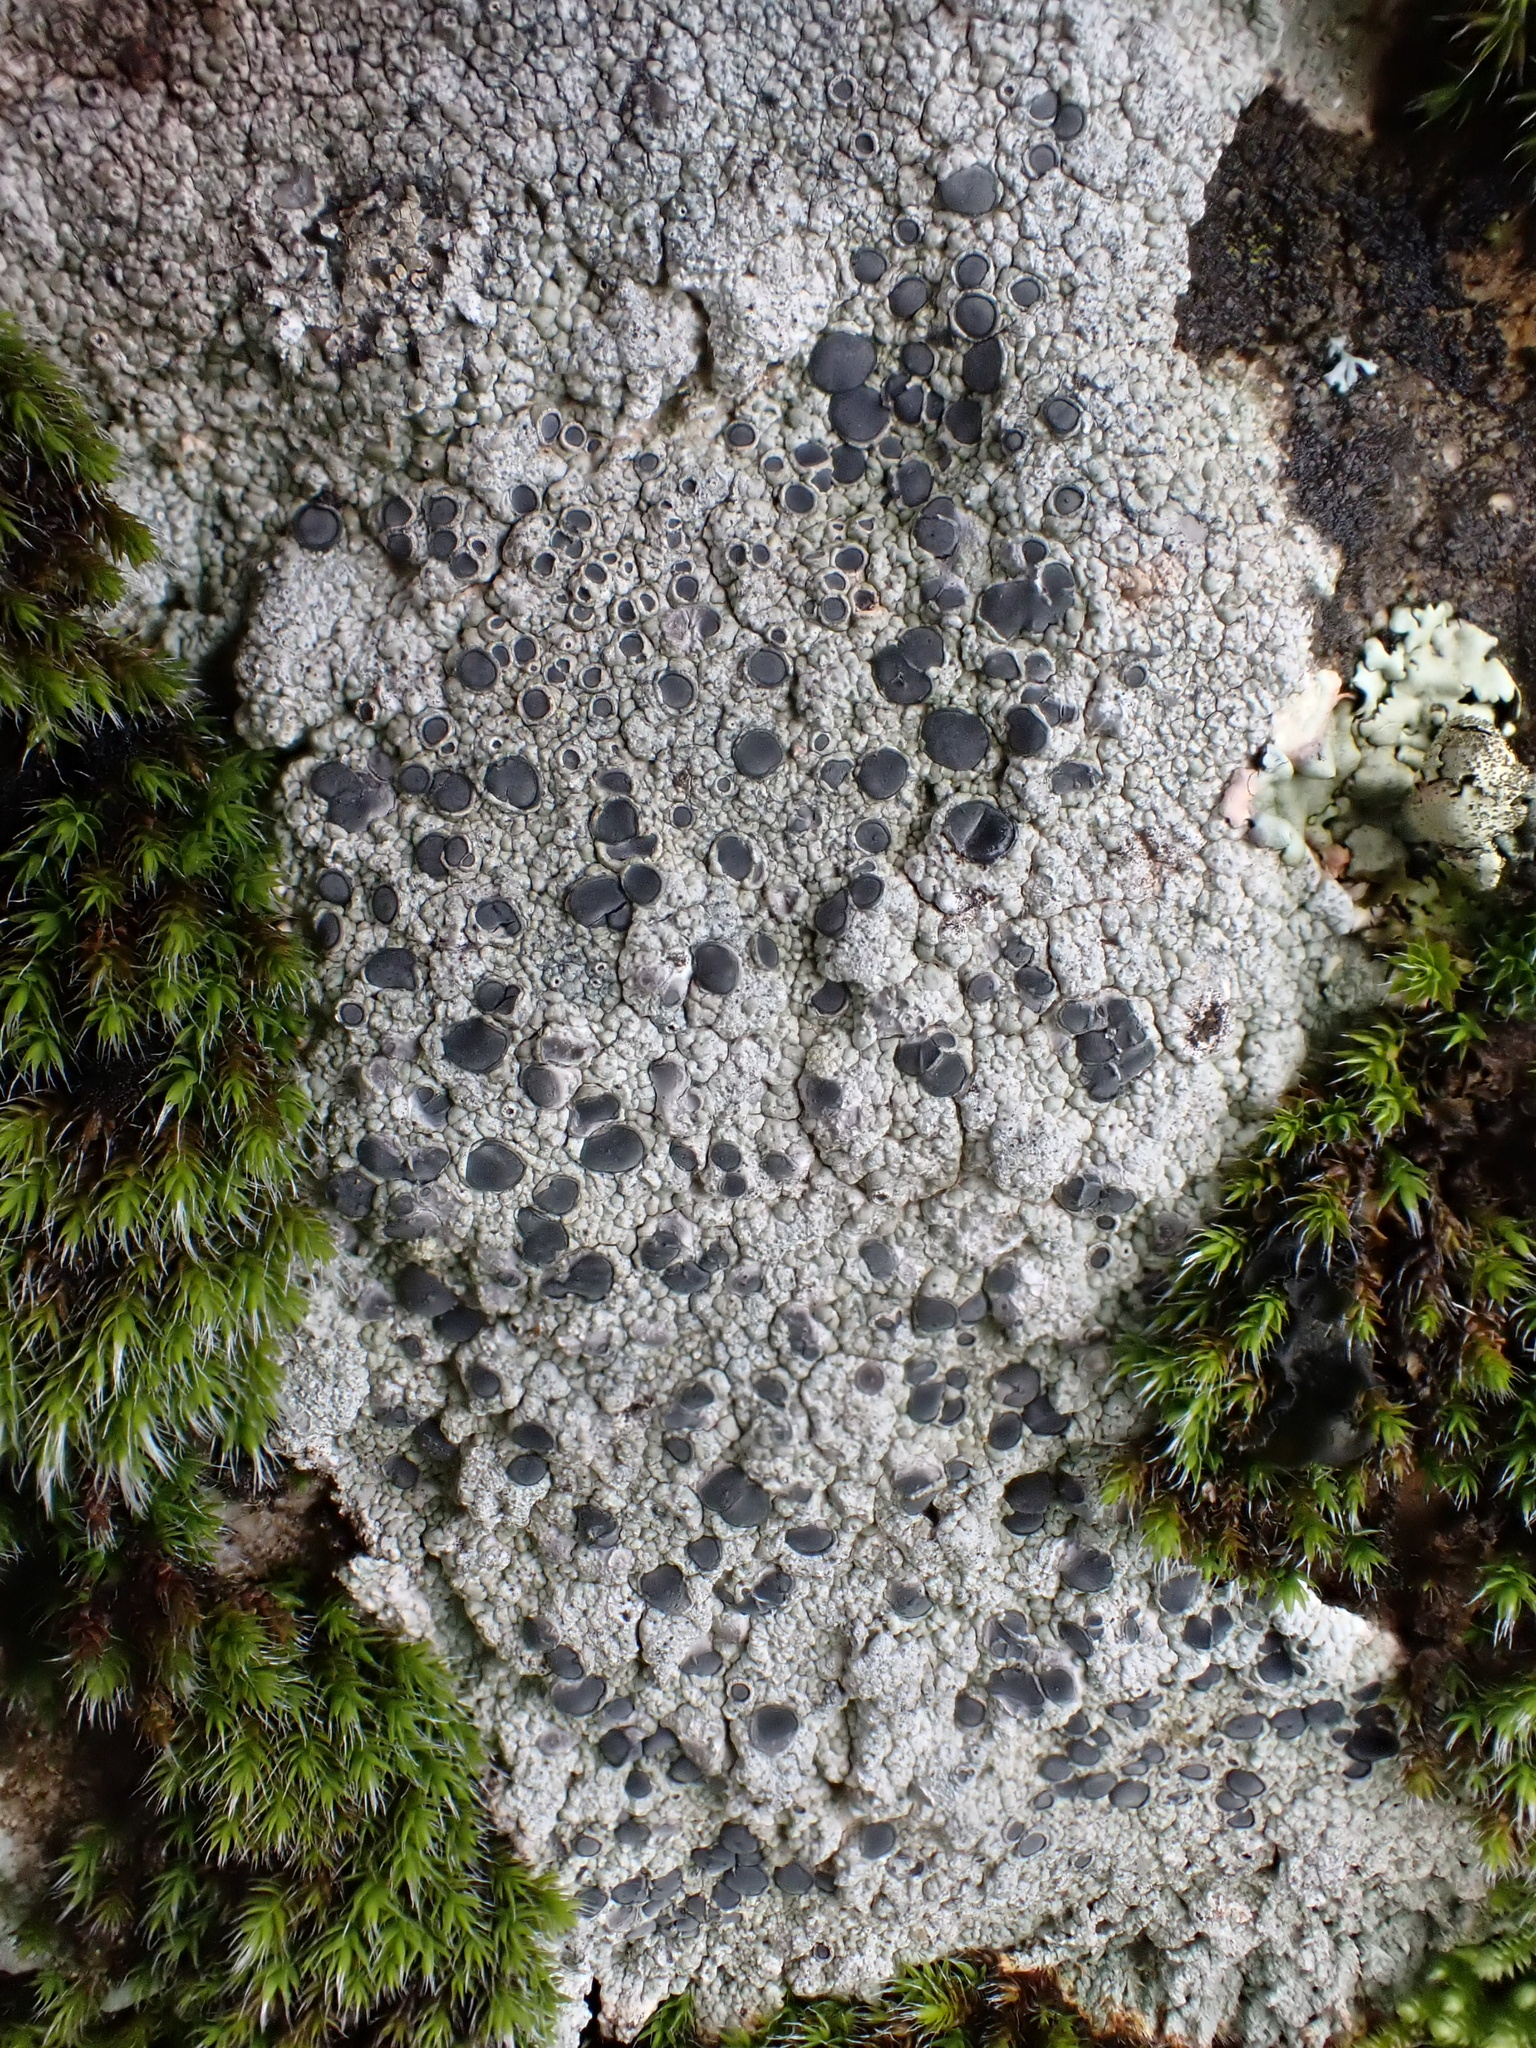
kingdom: Fungi
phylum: Ascomycota
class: Lecanoromycetes
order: Ostropales
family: Graphidaceae
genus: Diploschistes
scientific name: Diploschistes scruposus
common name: Crater lichen
